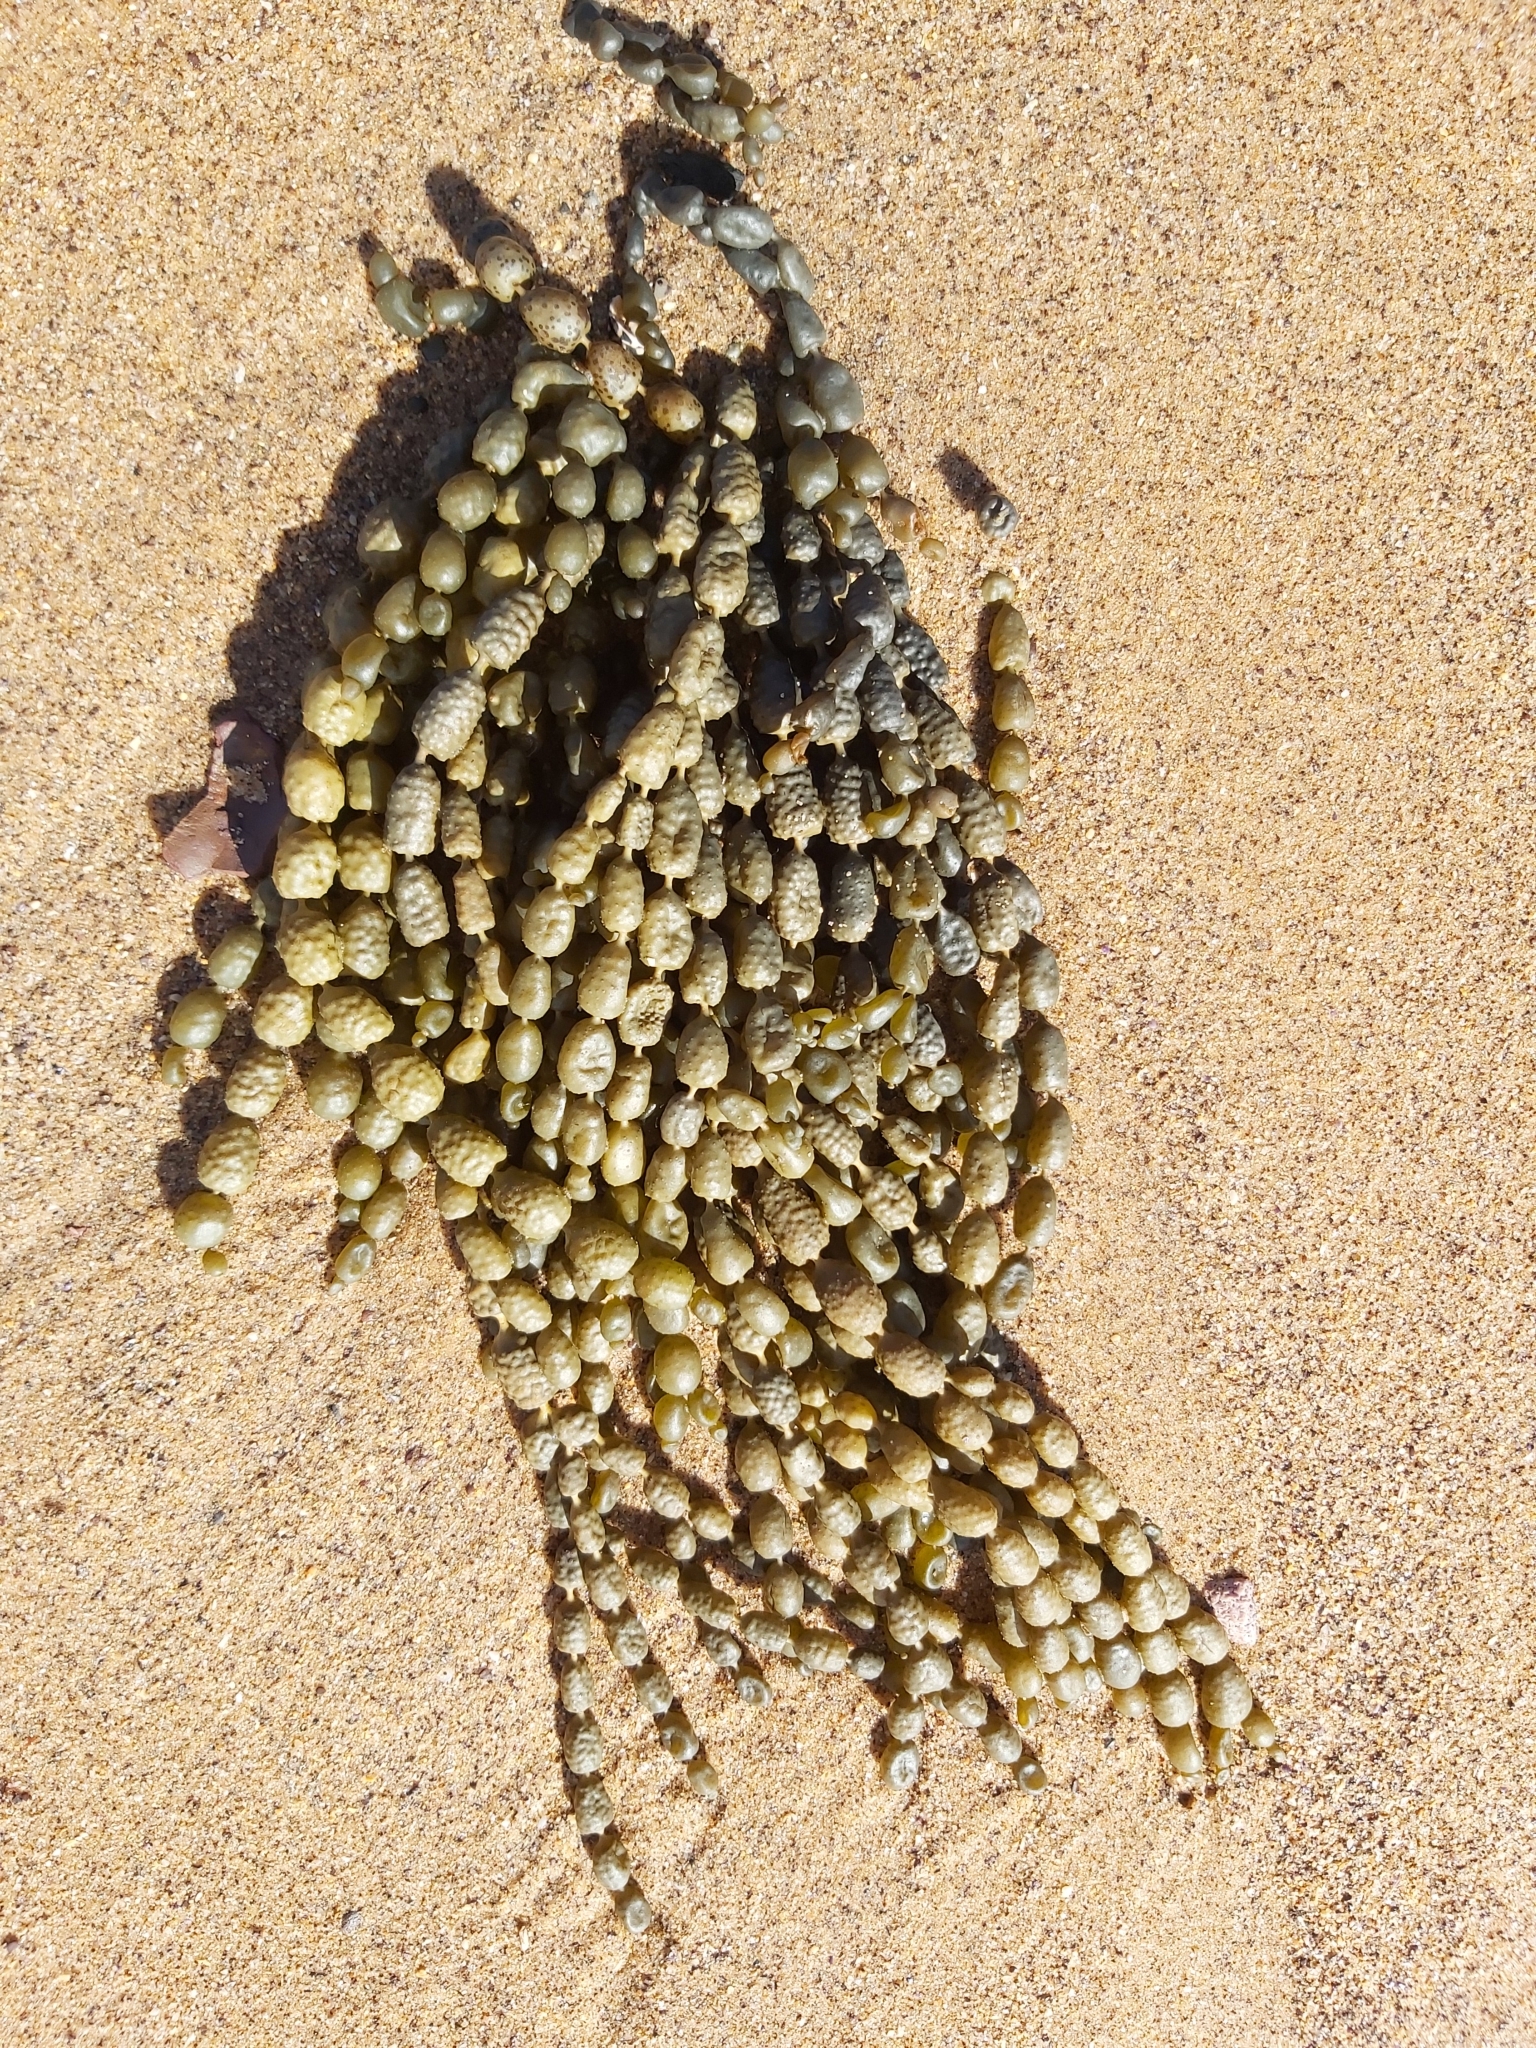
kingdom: Chromista
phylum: Ochrophyta
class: Phaeophyceae
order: Fucales
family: Hormosiraceae
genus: Hormosira
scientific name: Hormosira banksii
